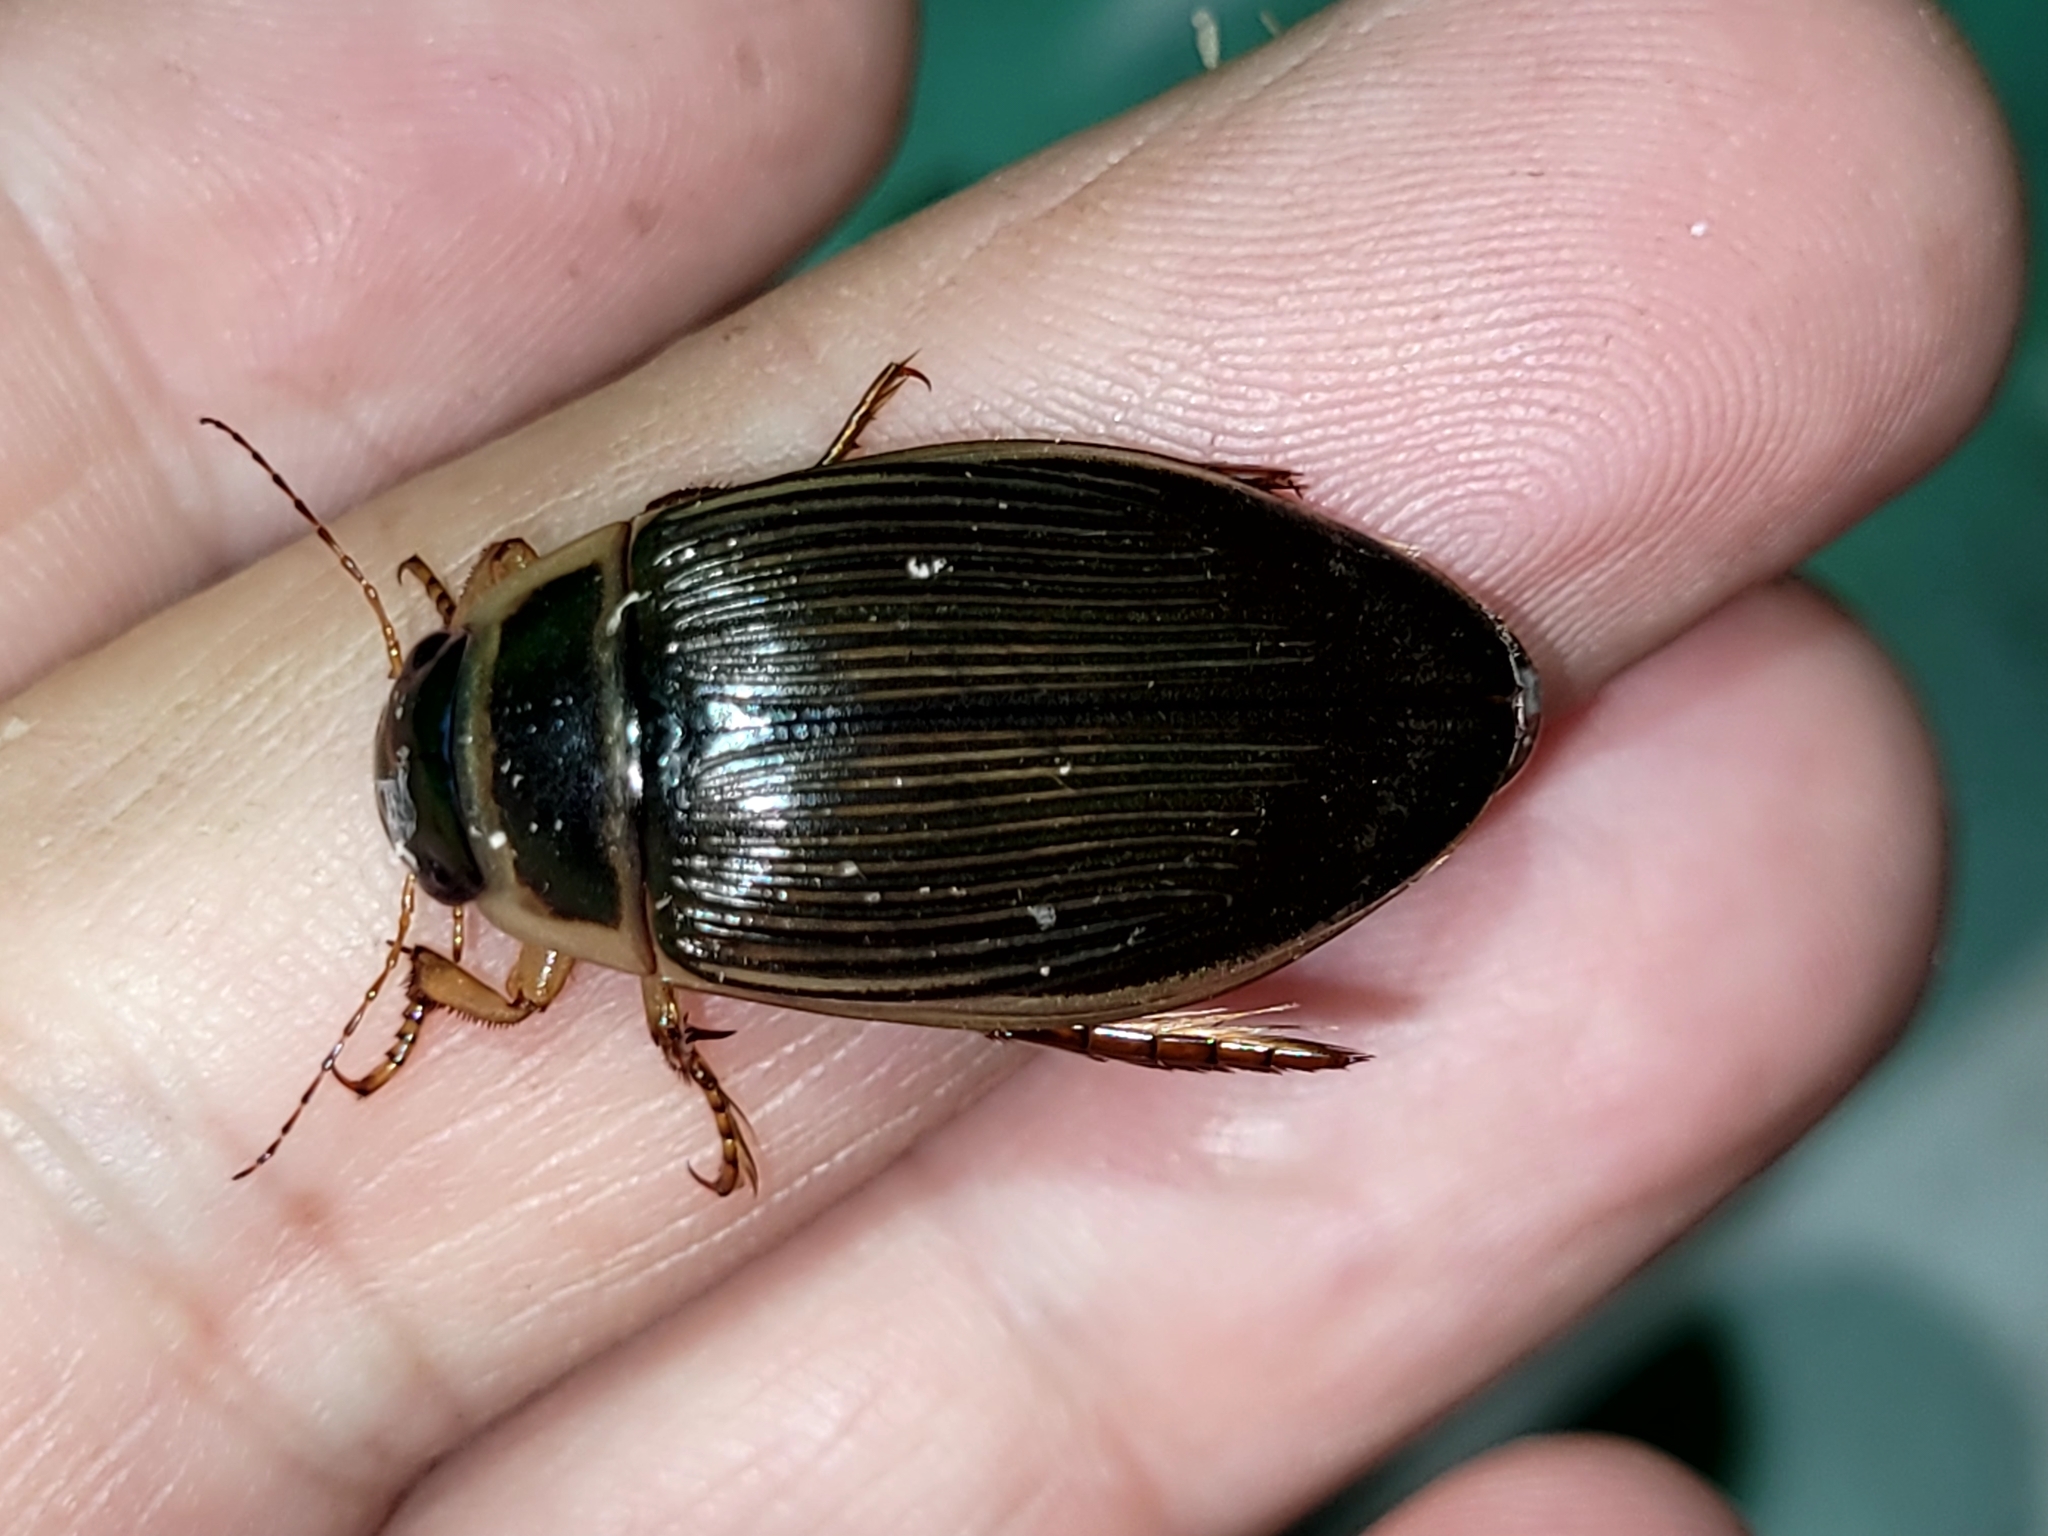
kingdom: Animalia
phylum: Arthropoda
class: Insecta
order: Coleoptera
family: Dytiscidae
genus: Dytiscus
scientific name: Dytiscus alaskanus
